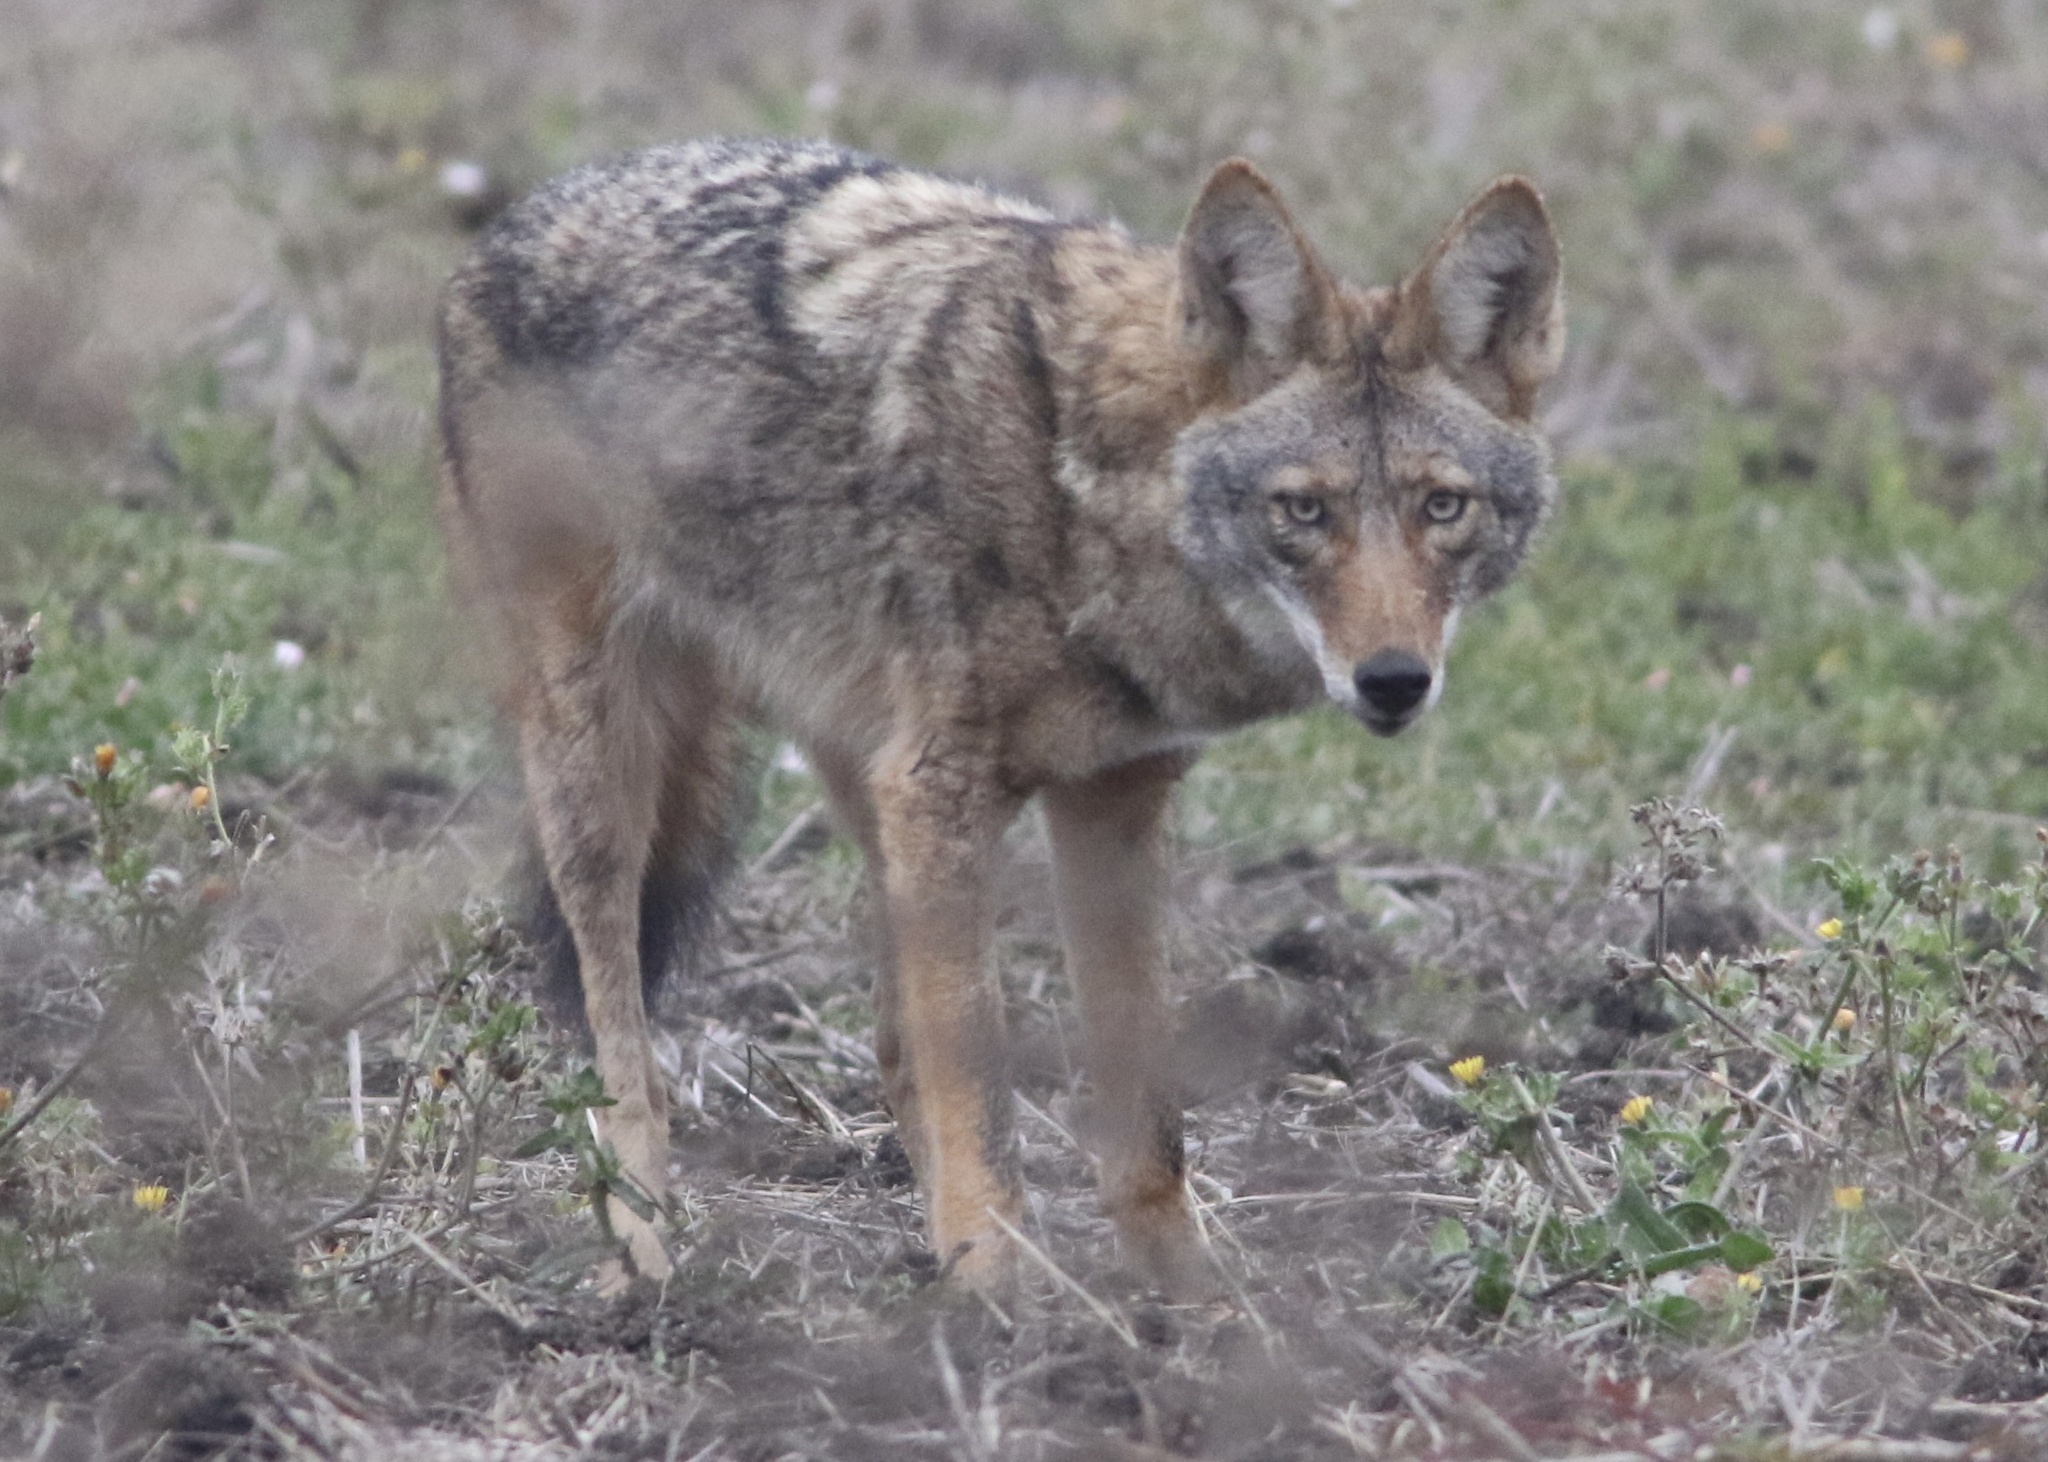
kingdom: Animalia
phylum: Chordata
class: Mammalia
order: Carnivora
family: Canidae
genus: Canis
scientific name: Canis latrans
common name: Coyote
